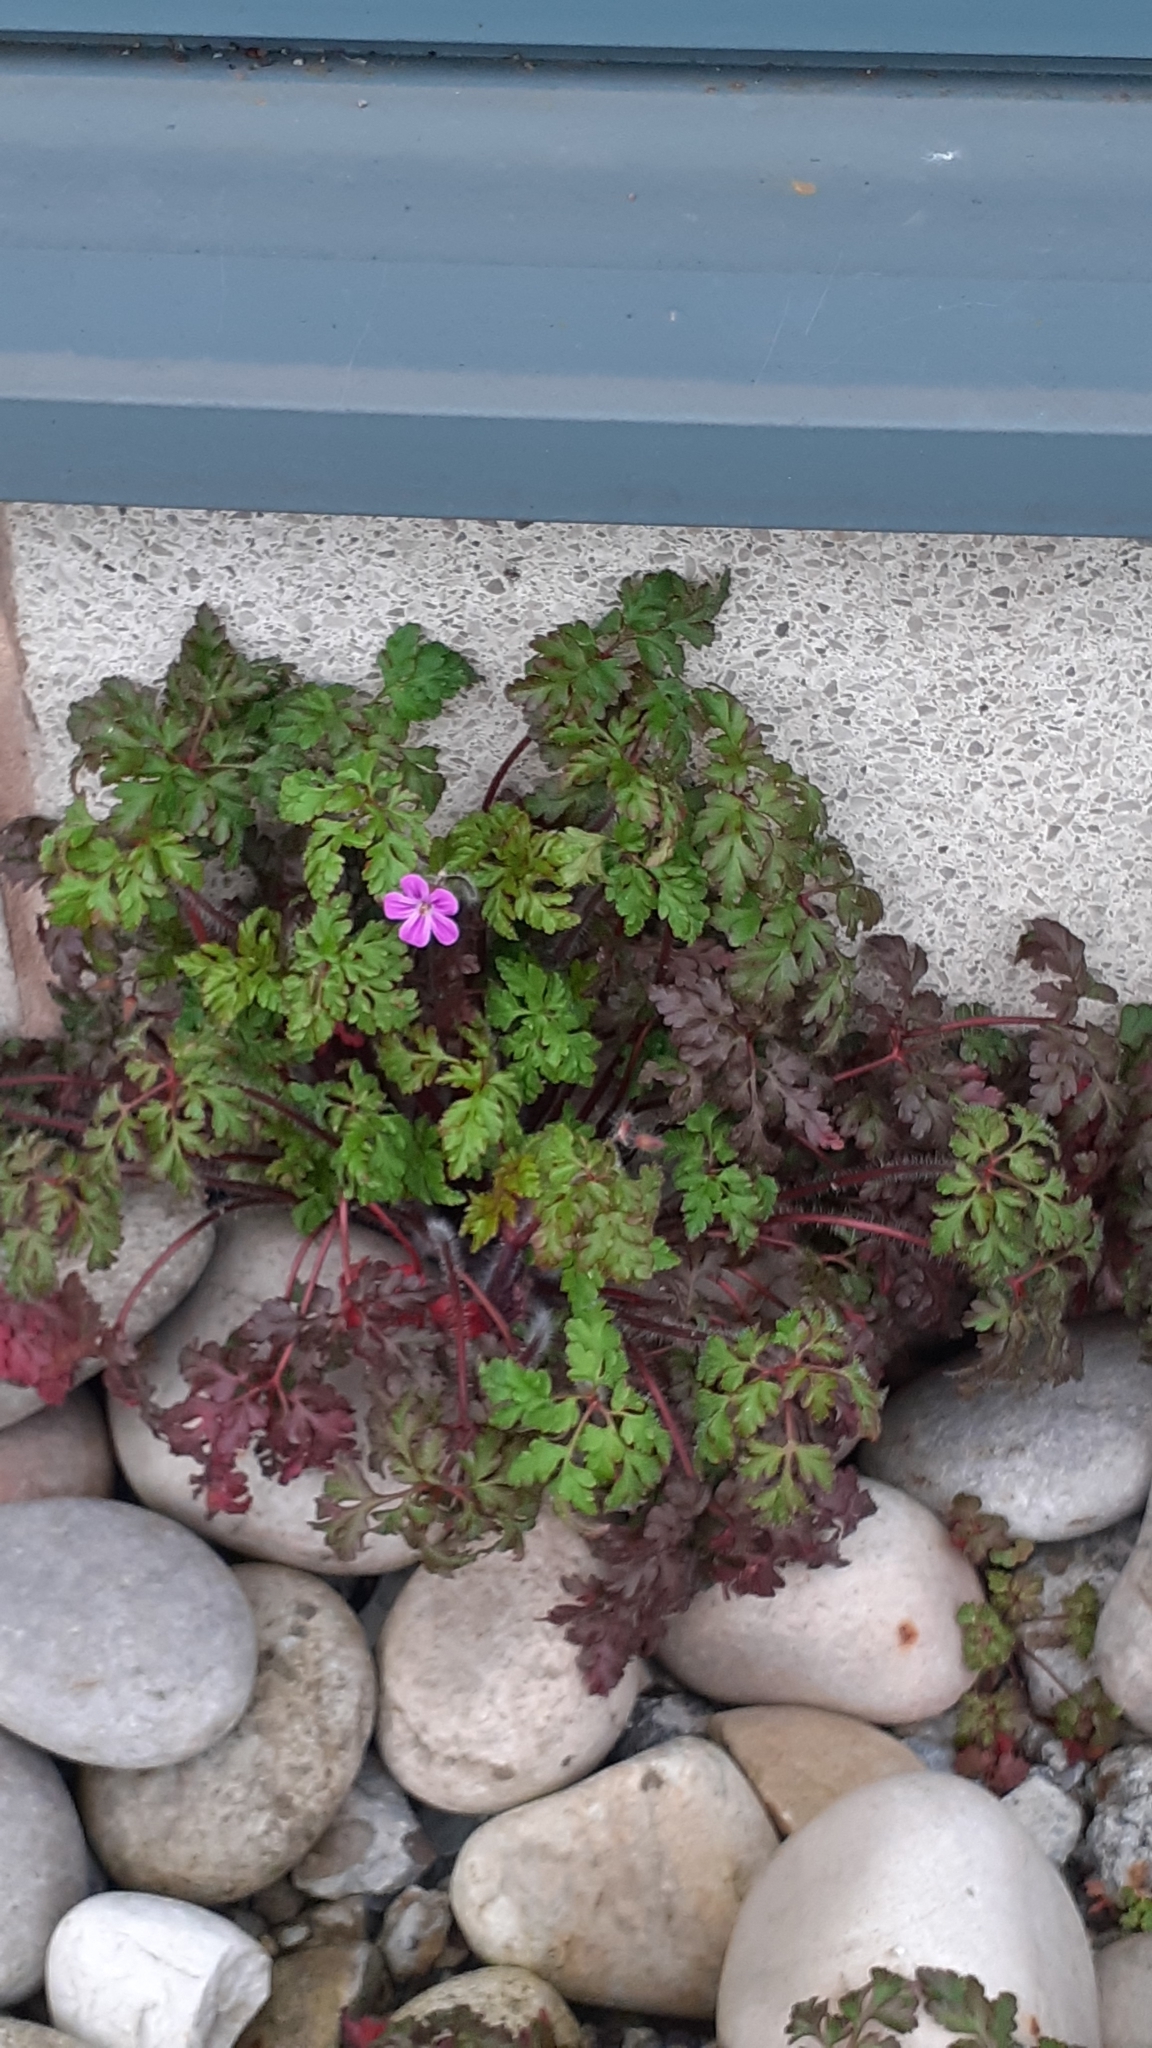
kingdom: Plantae
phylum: Tracheophyta
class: Magnoliopsida
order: Geraniales
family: Geraniaceae
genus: Geranium
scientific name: Geranium robertianum
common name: Herb-robert
